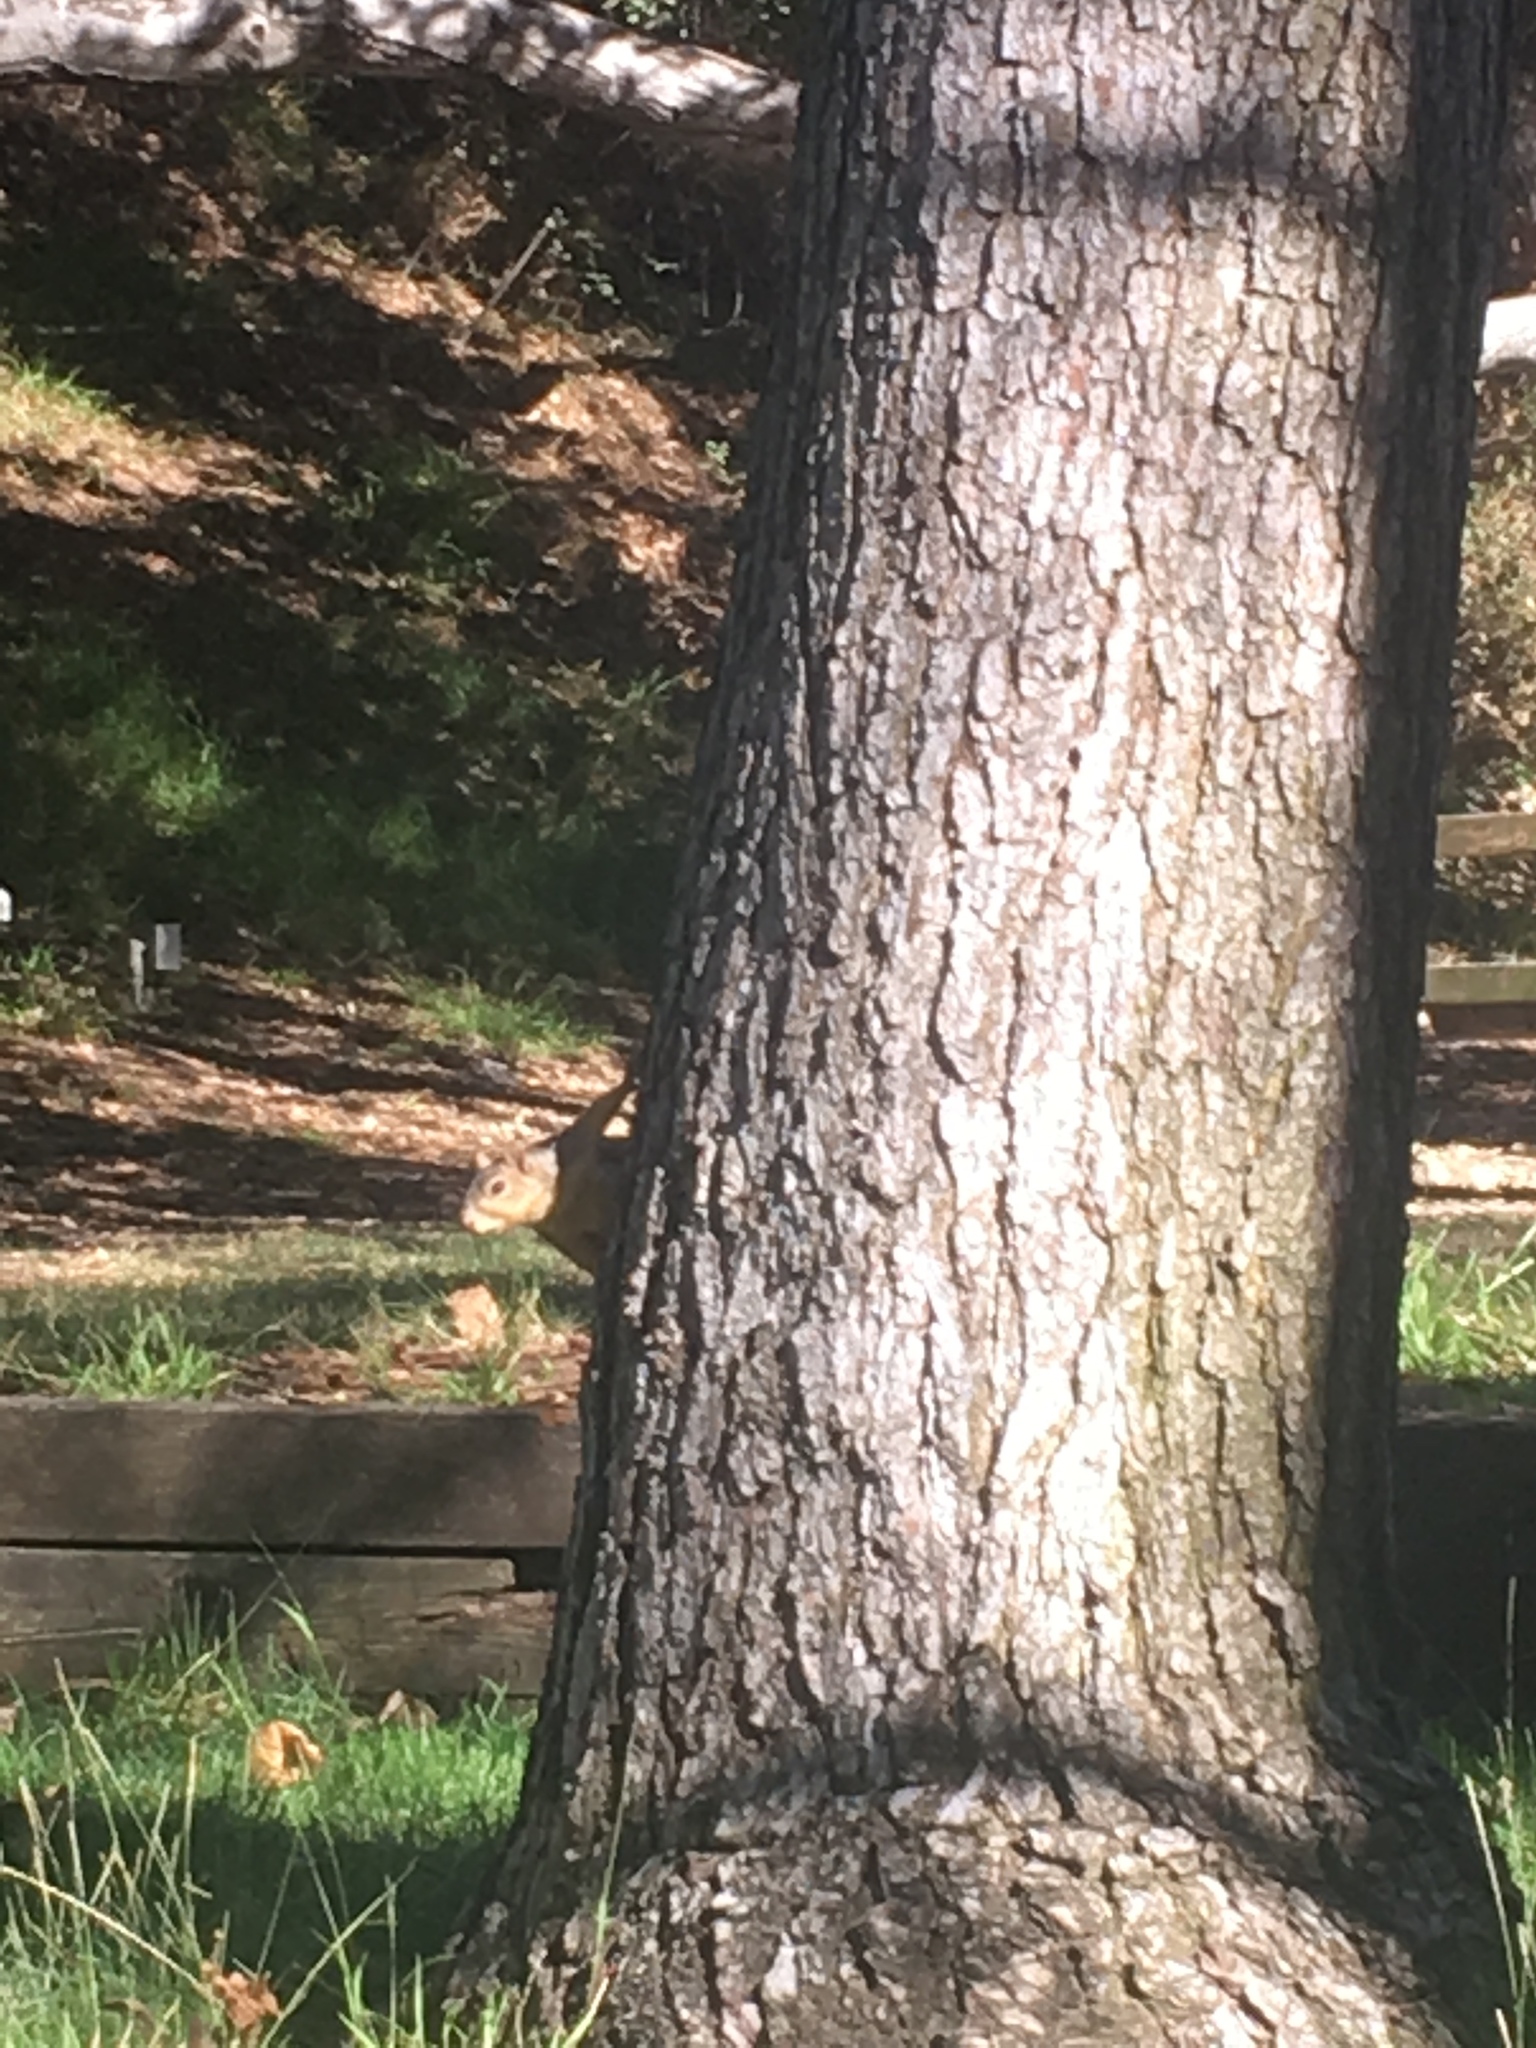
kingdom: Animalia
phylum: Chordata
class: Mammalia
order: Rodentia
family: Sciuridae
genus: Sciurus
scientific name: Sciurus niger
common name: Fox squirrel
